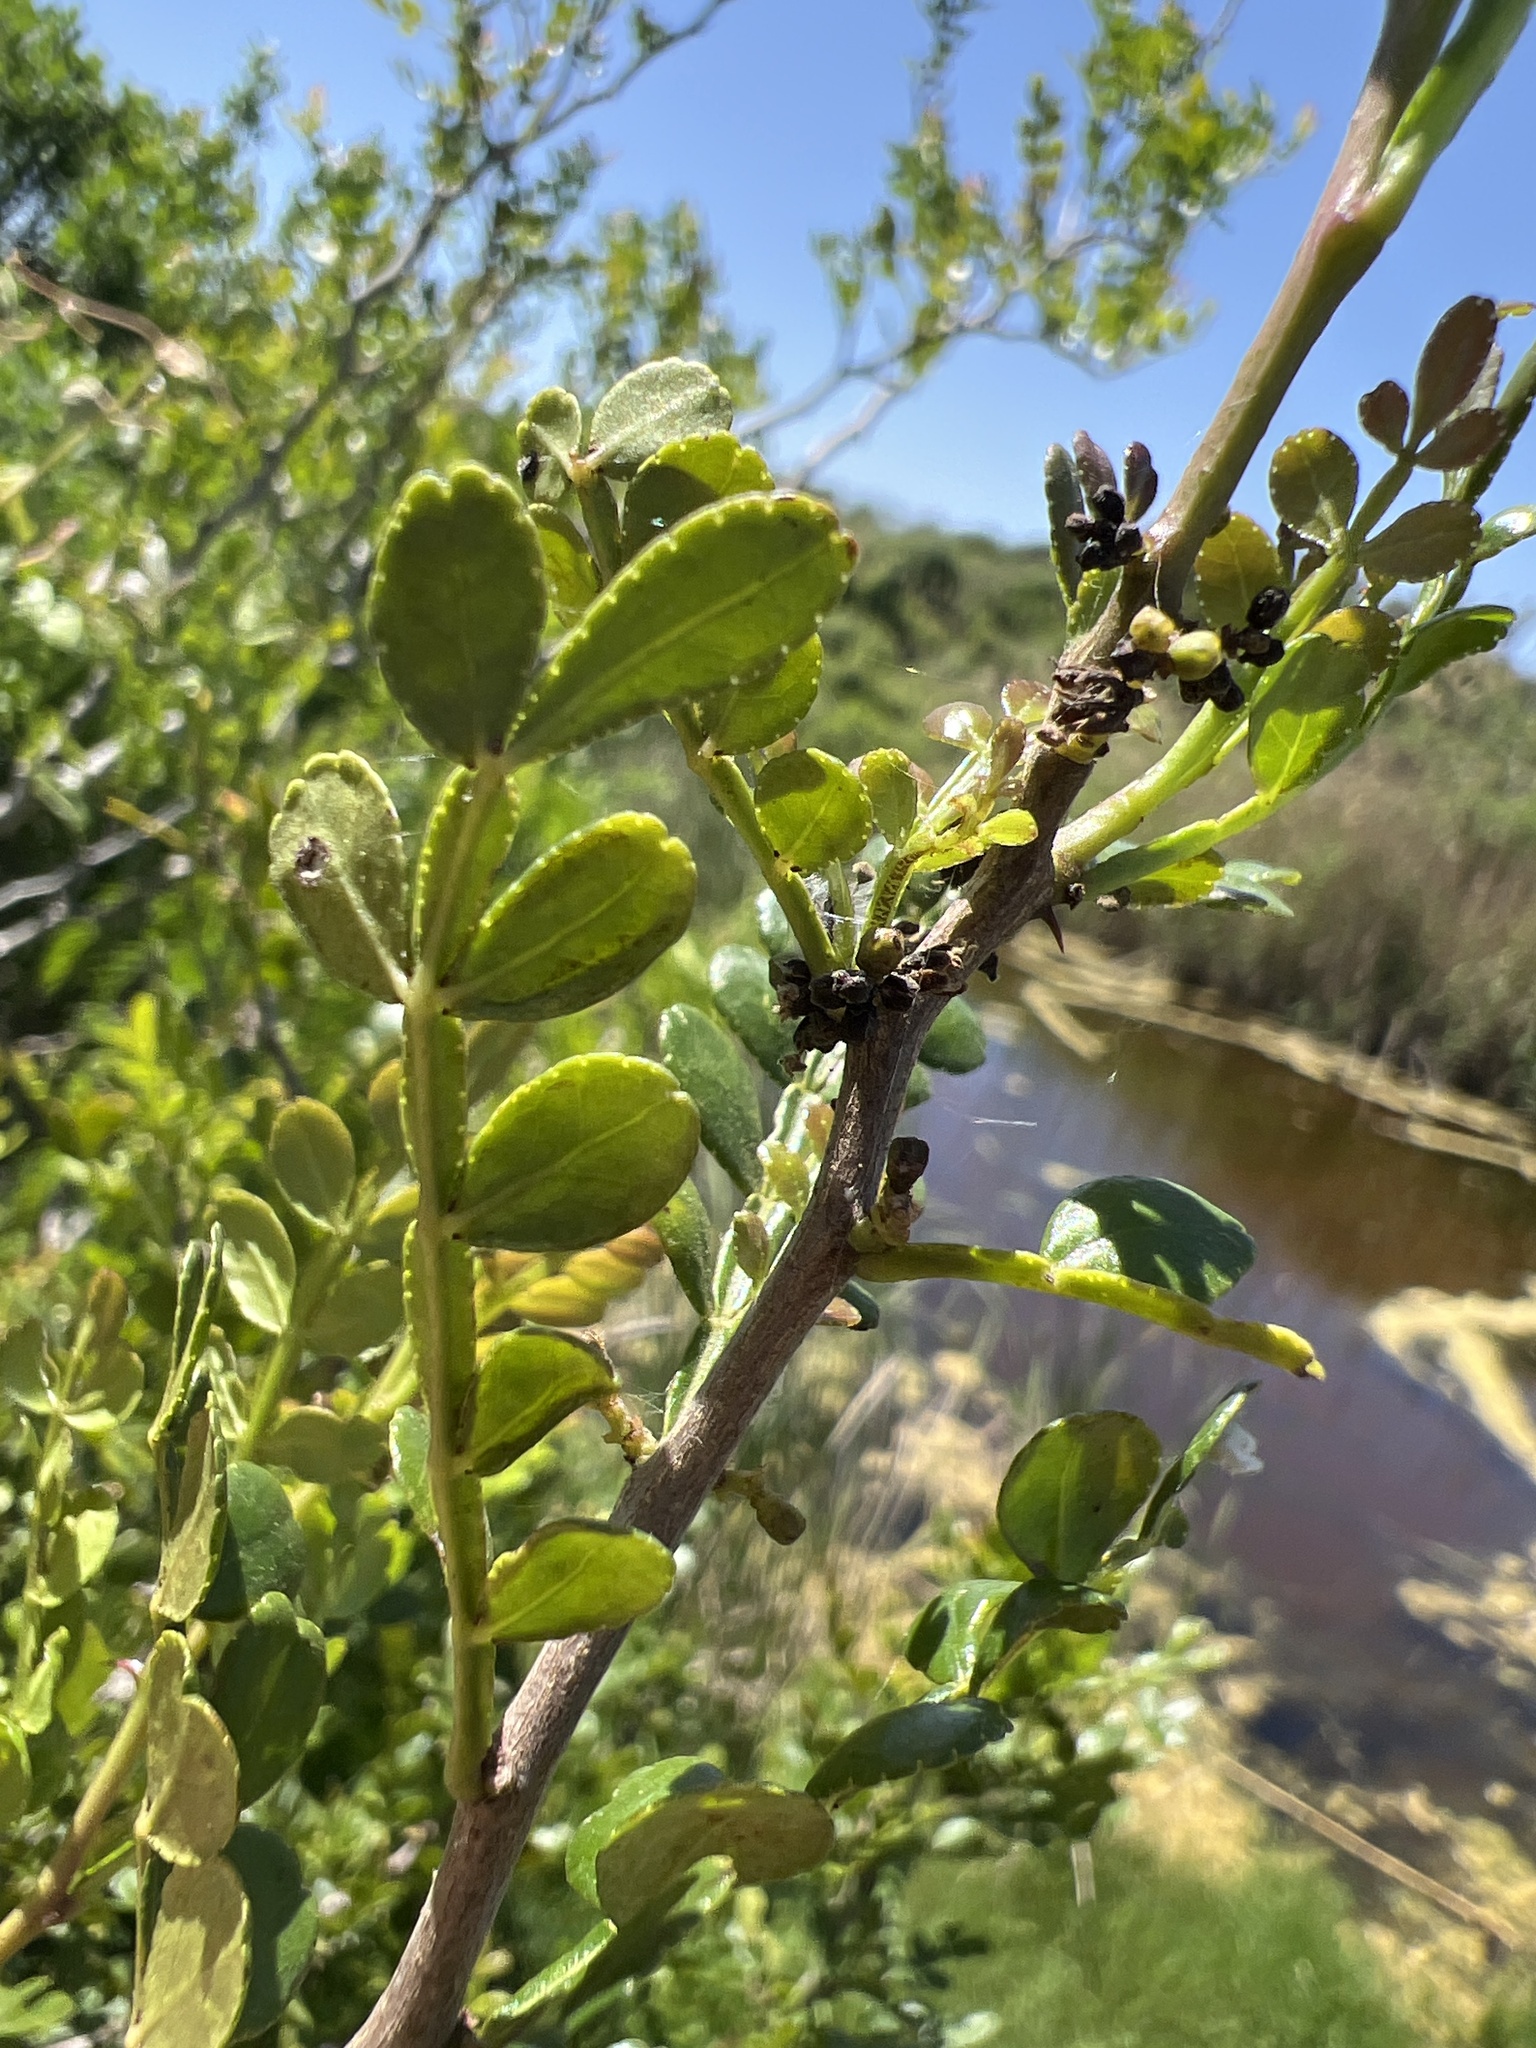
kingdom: Plantae
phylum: Tracheophyta
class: Magnoliopsida
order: Sapindales
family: Rutaceae
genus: Zanthoxylum
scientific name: Zanthoxylum fagara
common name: Lime prickly-ash
